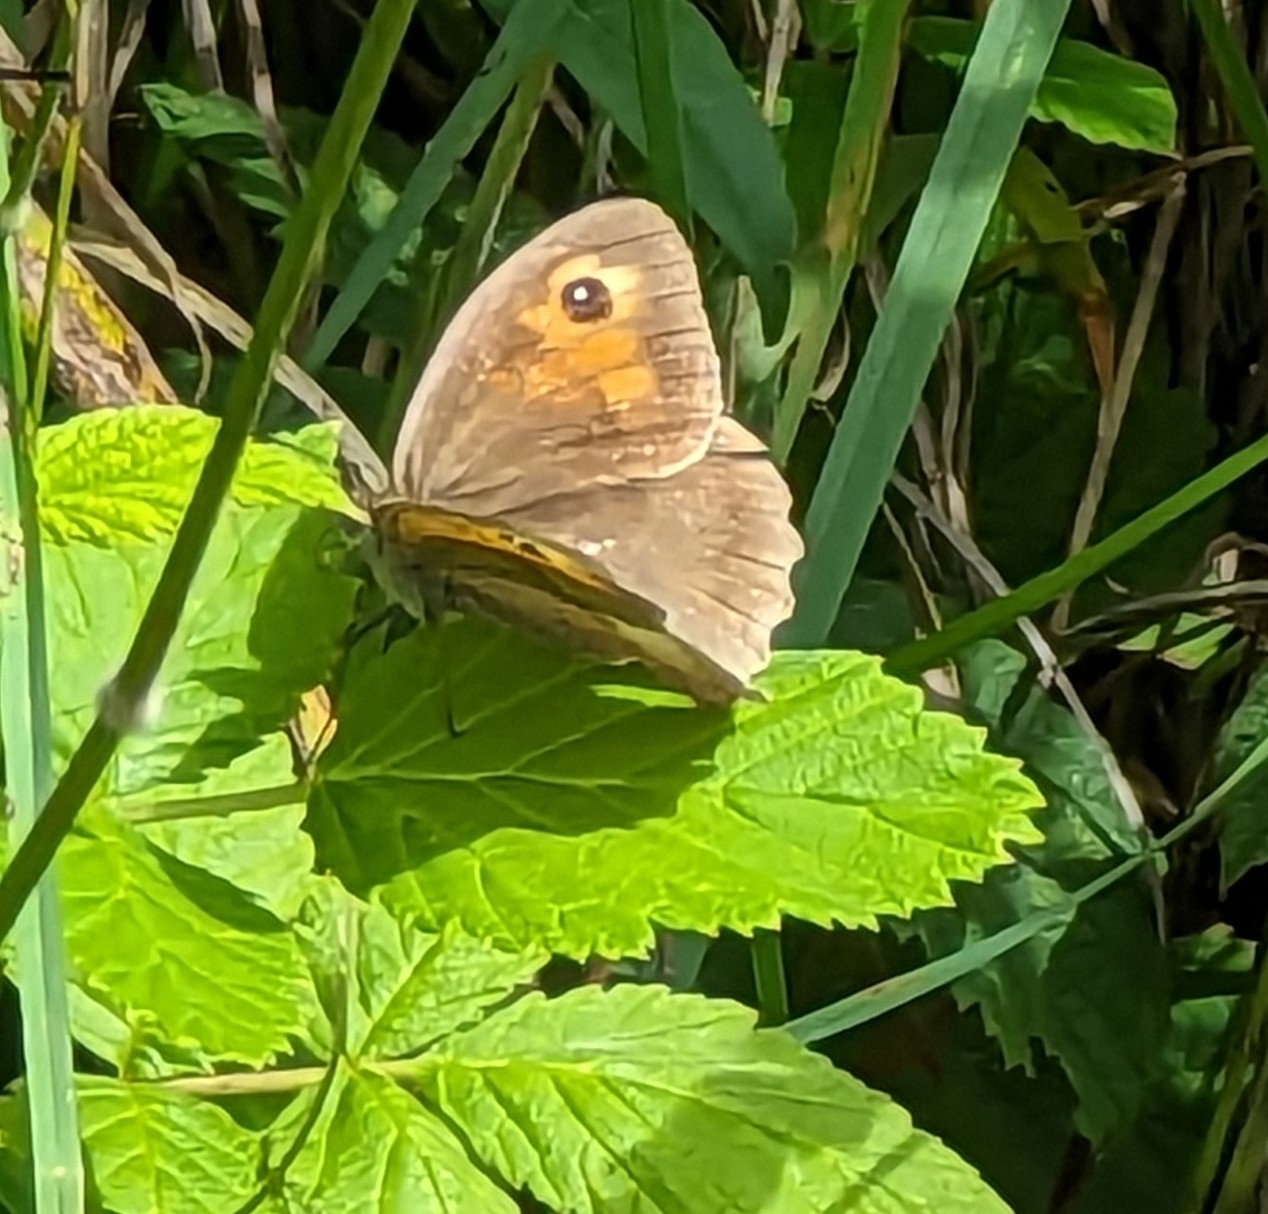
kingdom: Animalia
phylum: Arthropoda
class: Insecta
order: Lepidoptera
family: Nymphalidae
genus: Maniola
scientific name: Maniola jurtina
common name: Meadow brown
